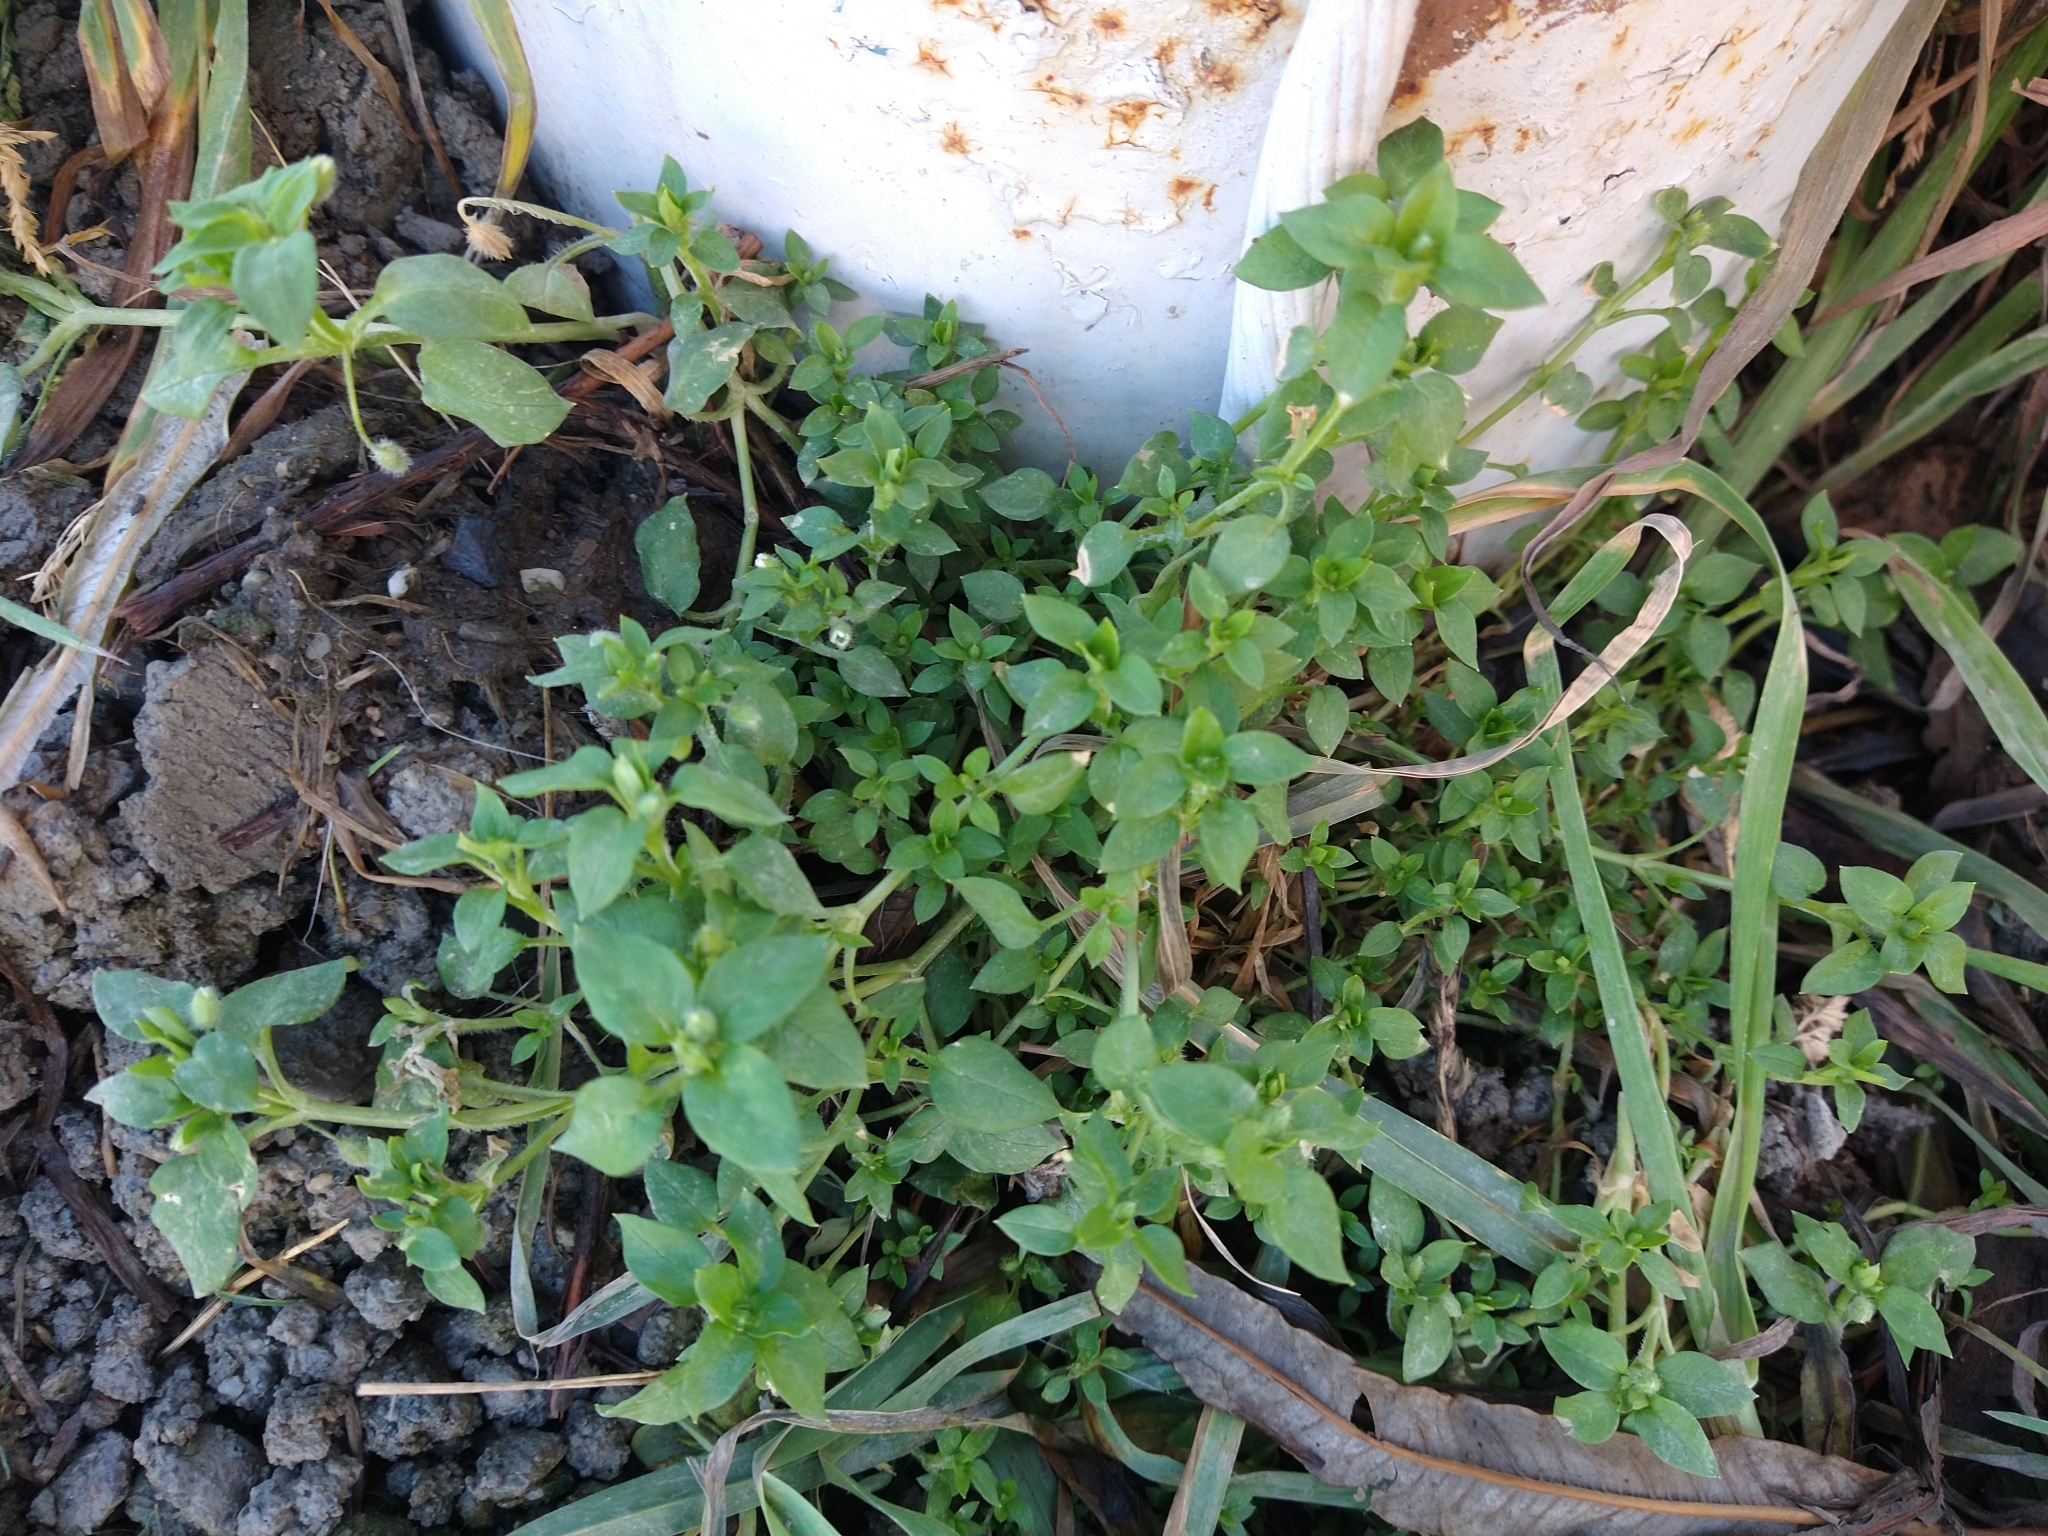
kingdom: Plantae
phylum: Tracheophyta
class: Magnoliopsida
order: Caryophyllales
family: Caryophyllaceae
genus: Stellaria
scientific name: Stellaria media
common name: Common chickweed
